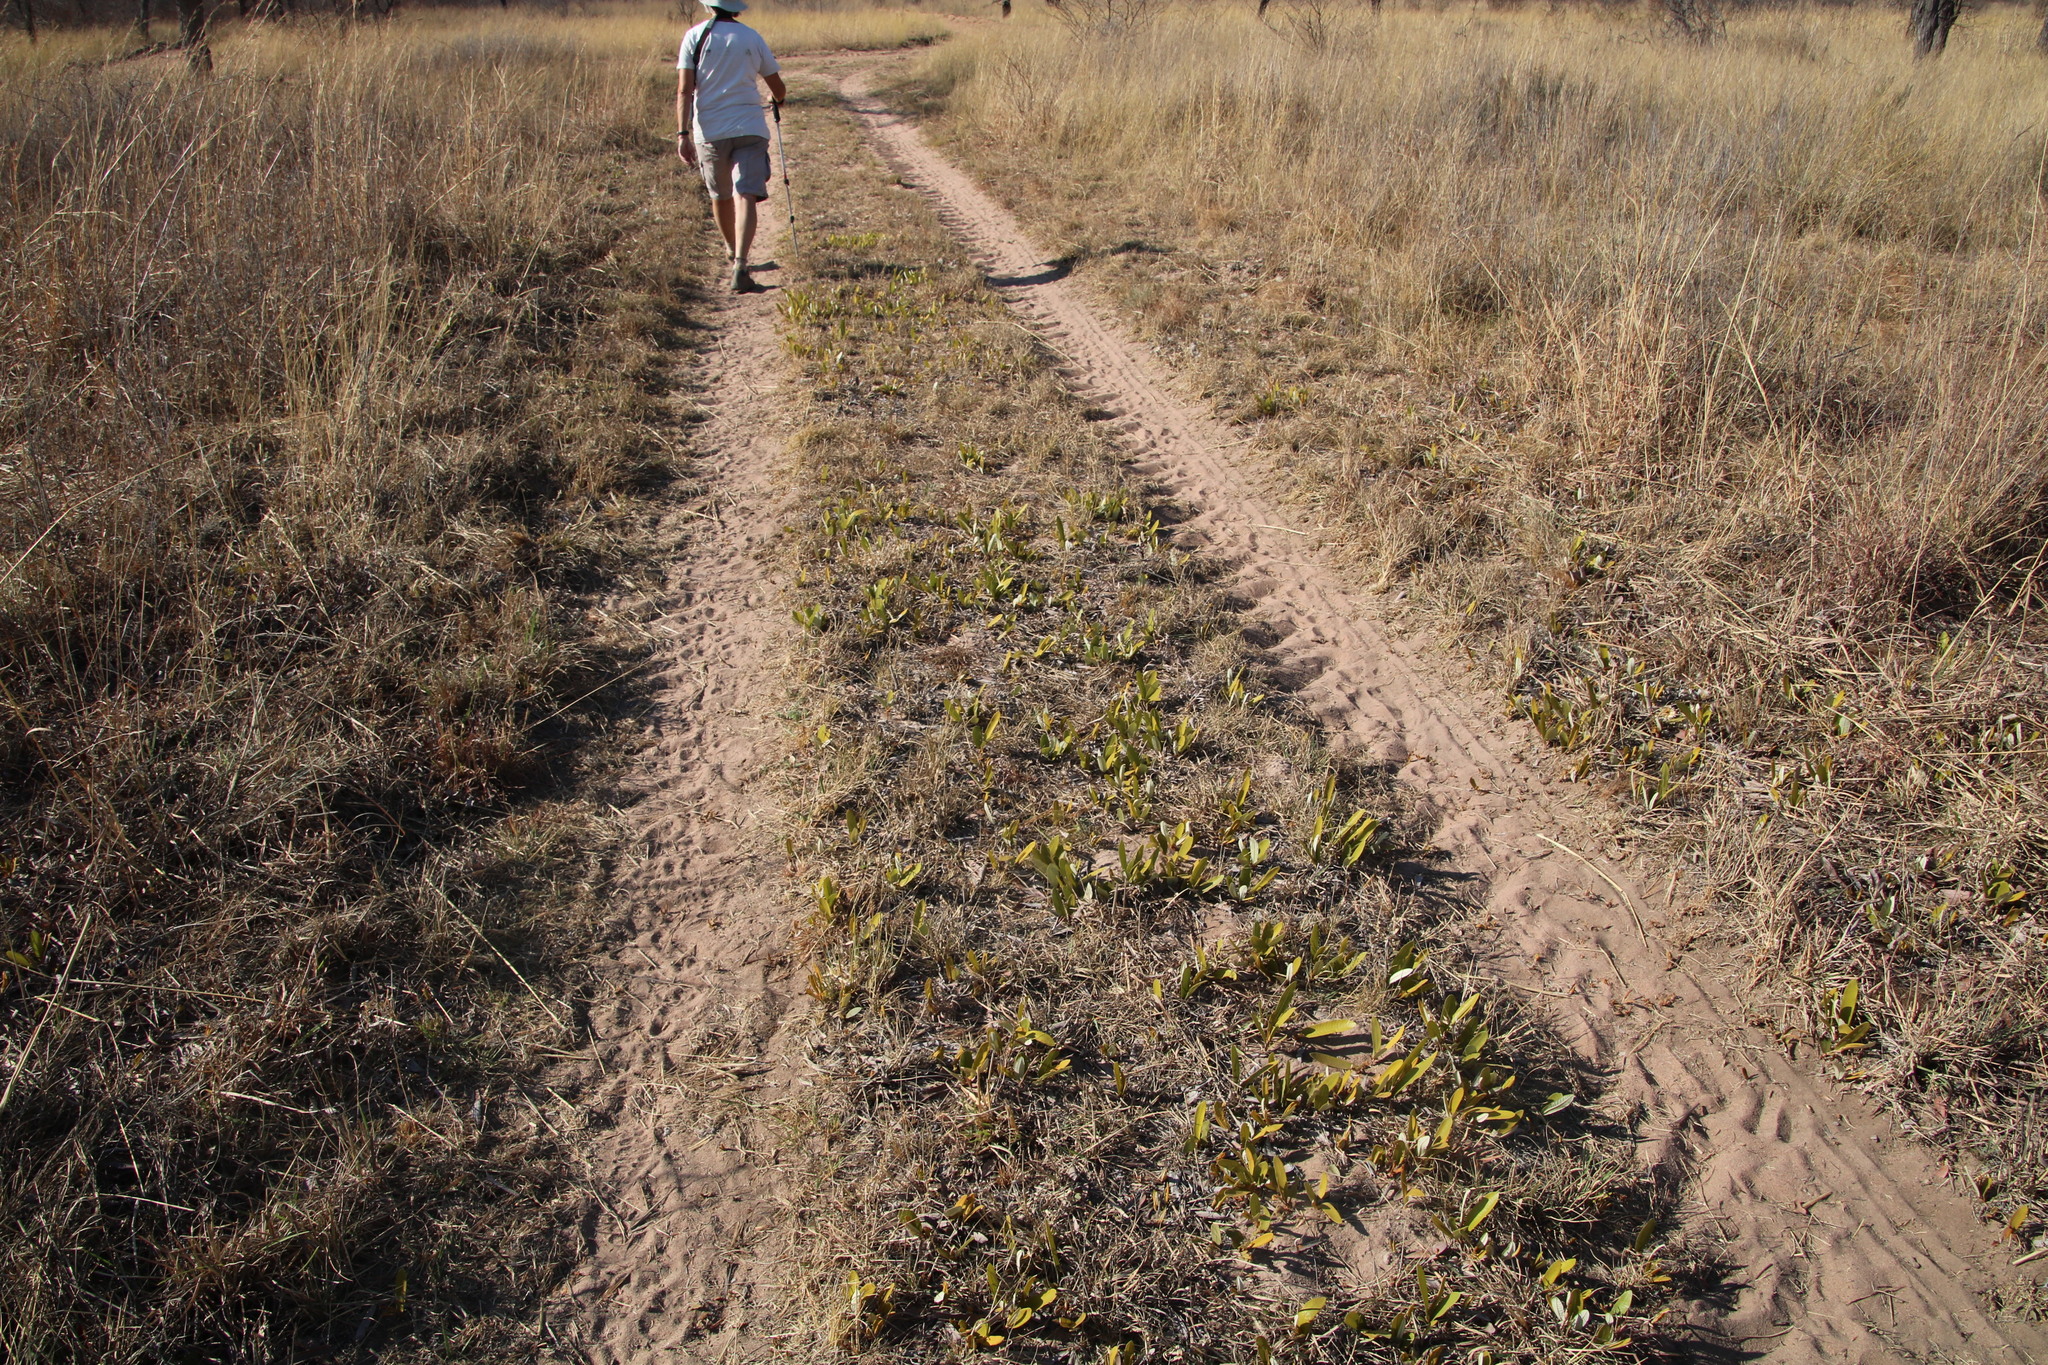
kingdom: Plantae
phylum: Tracheophyta
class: Magnoliopsida
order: Malpighiales
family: Chrysobalanaceae
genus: Parinari
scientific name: Parinari capensis
